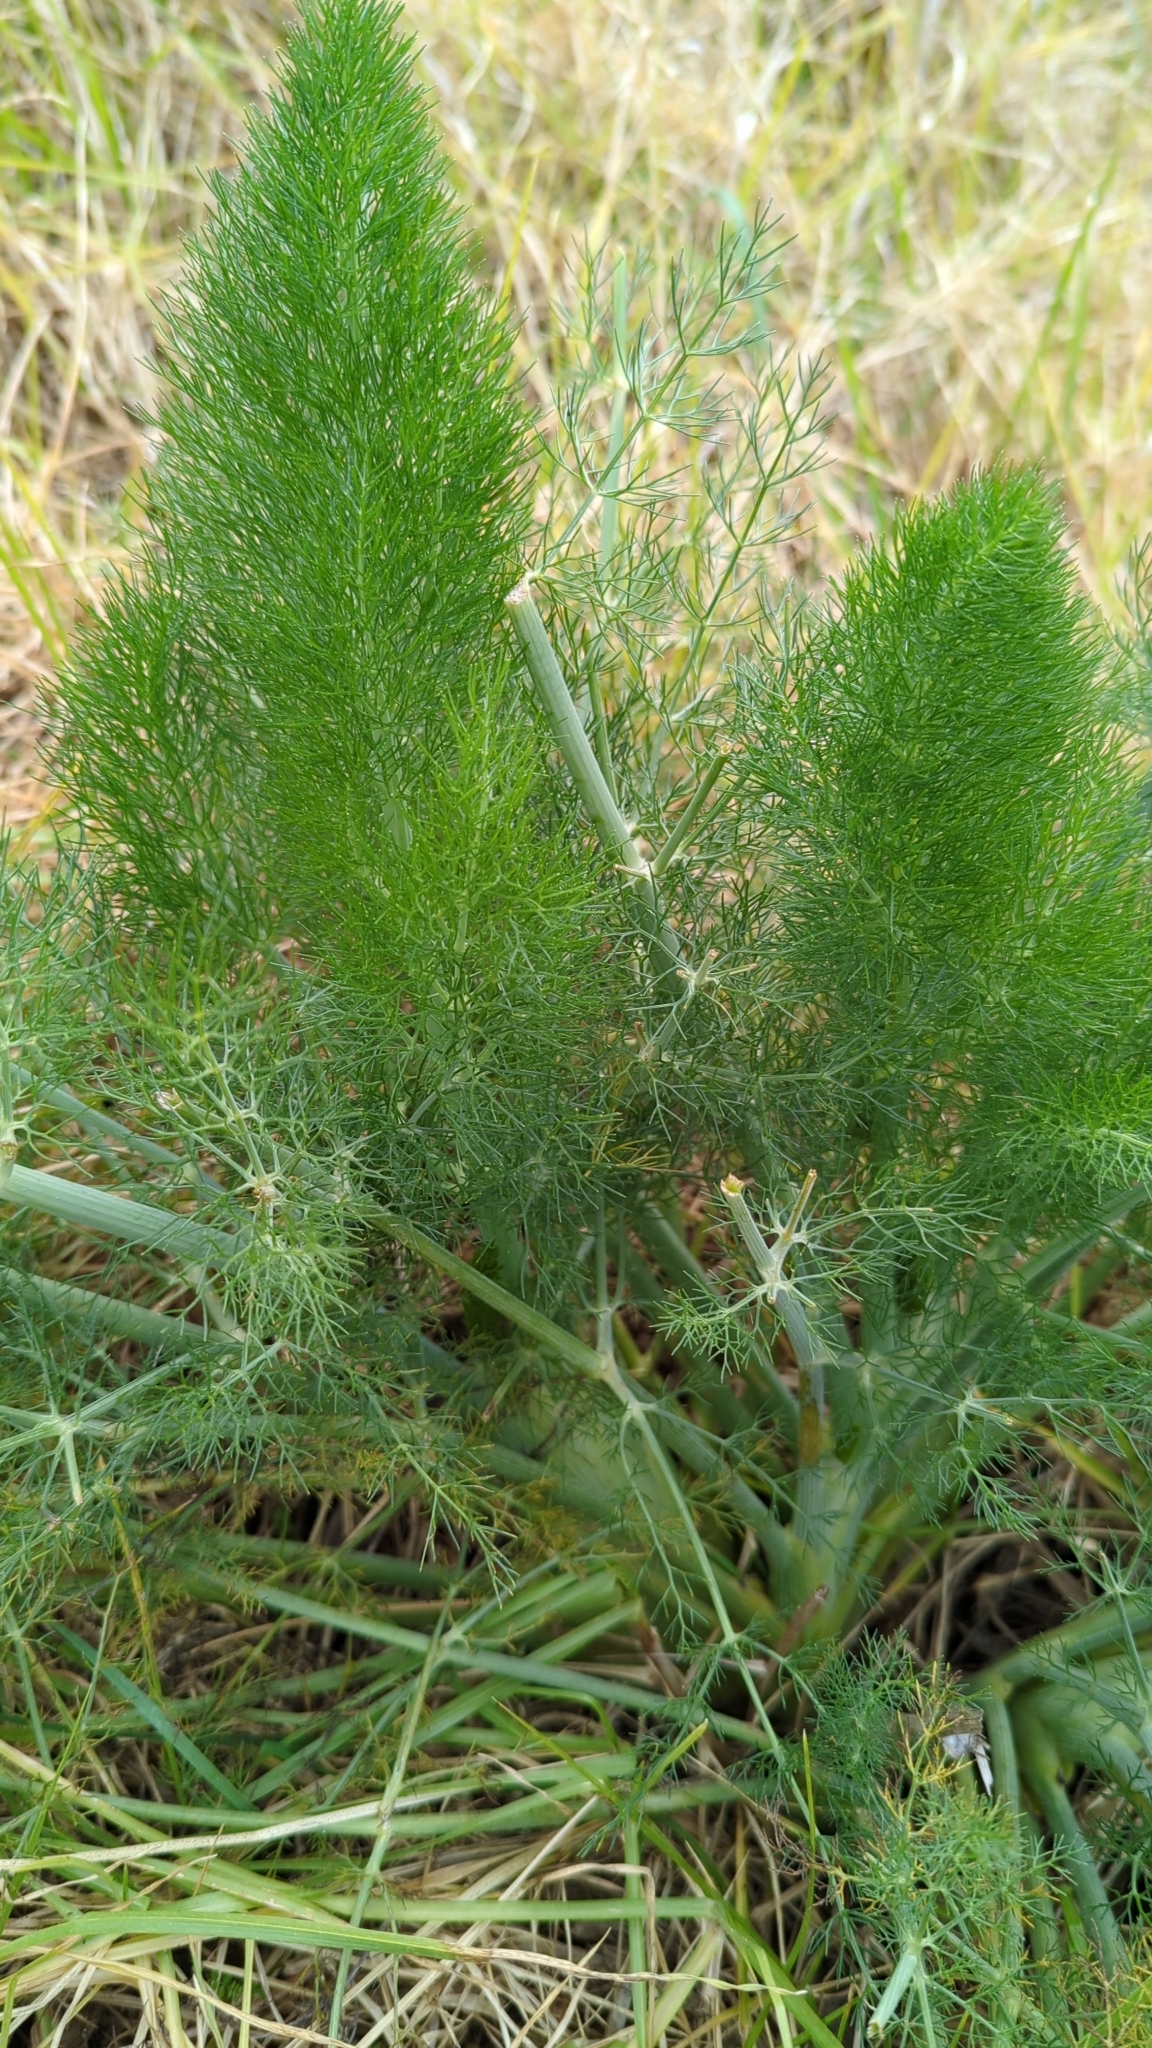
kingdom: Plantae
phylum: Tracheophyta
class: Magnoliopsida
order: Apiales
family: Apiaceae
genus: Foeniculum
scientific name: Foeniculum vulgare
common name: Fennel
